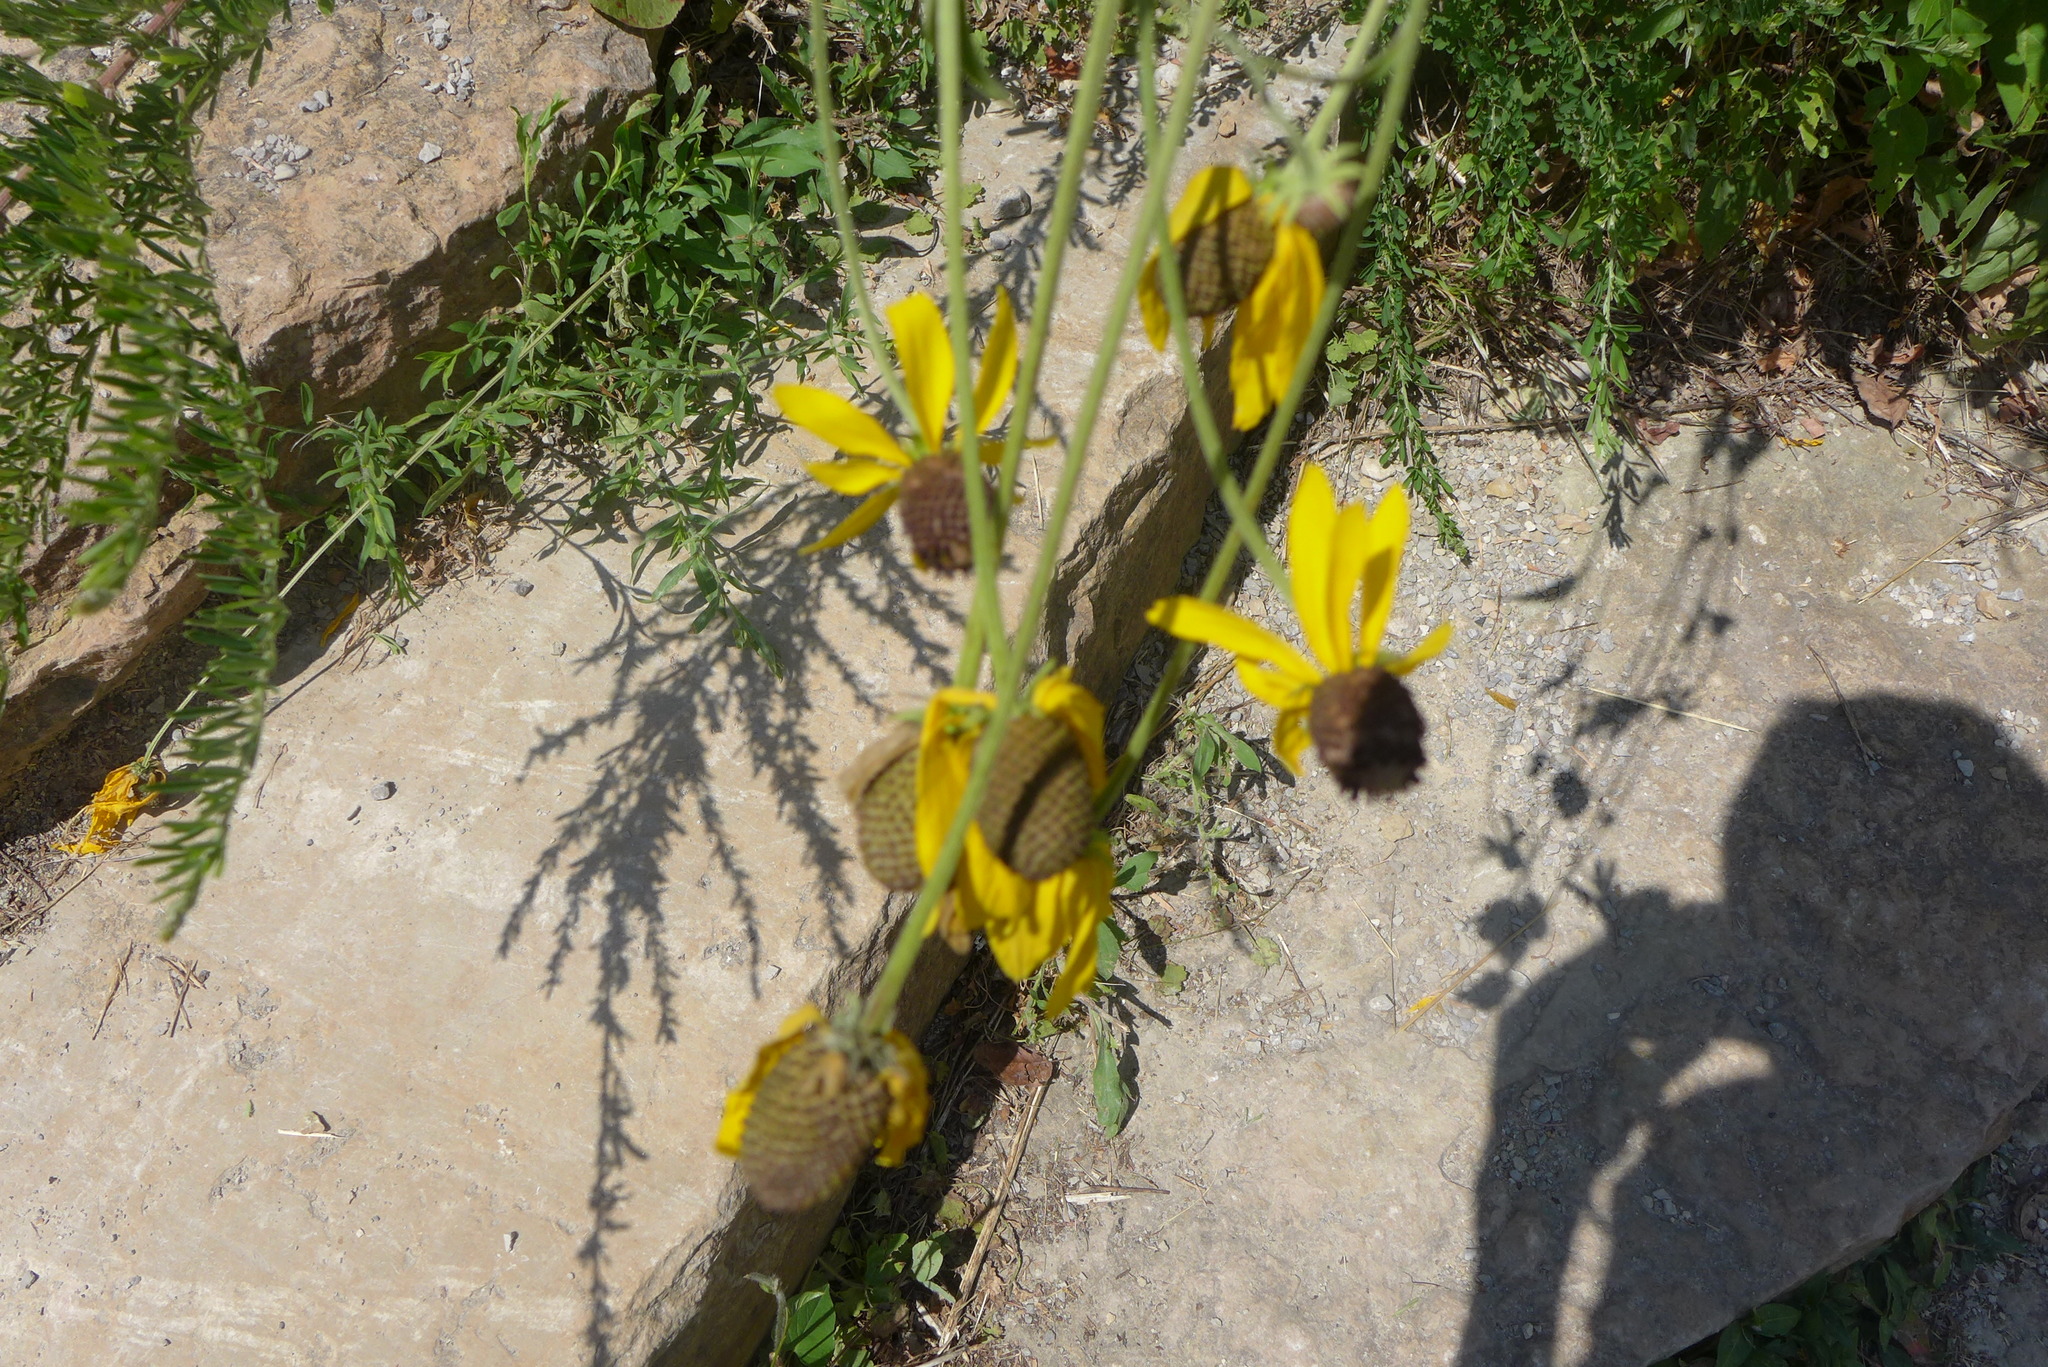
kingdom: Plantae
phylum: Tracheophyta
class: Magnoliopsida
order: Asterales
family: Asteraceae
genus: Ratibida
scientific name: Ratibida pinnata
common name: Drooping prairie-coneflower
